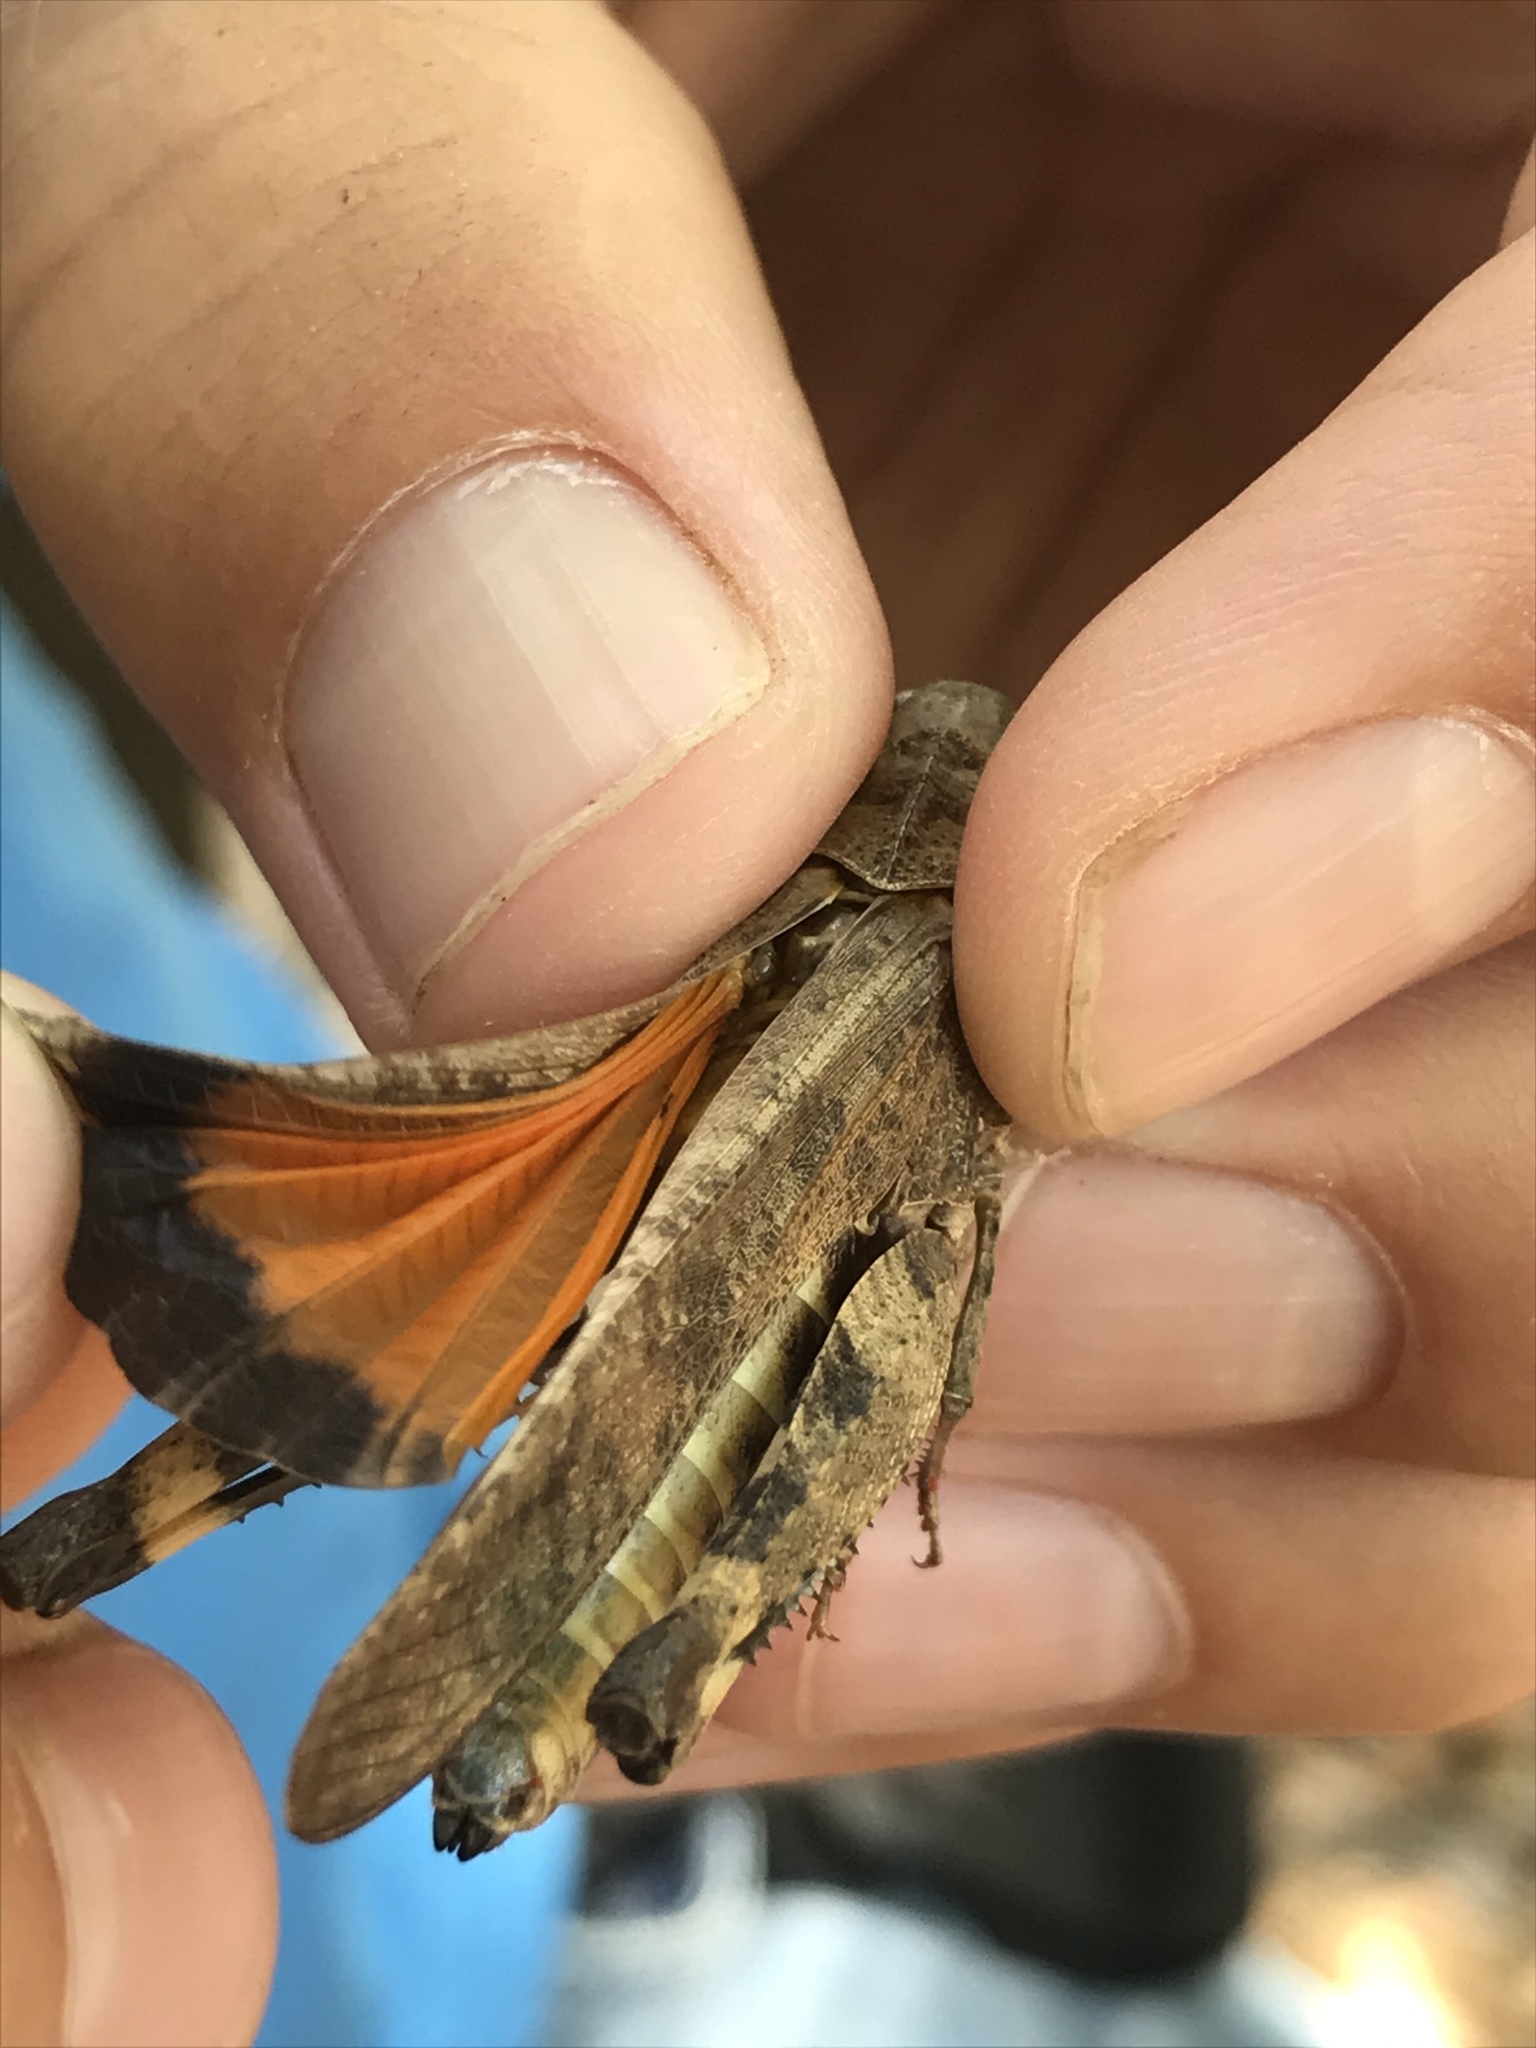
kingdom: Animalia
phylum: Arthropoda
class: Insecta
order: Orthoptera
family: Acrididae
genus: Arphia
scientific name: Arphia simplex
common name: Plains yellow-winged grasshopper
